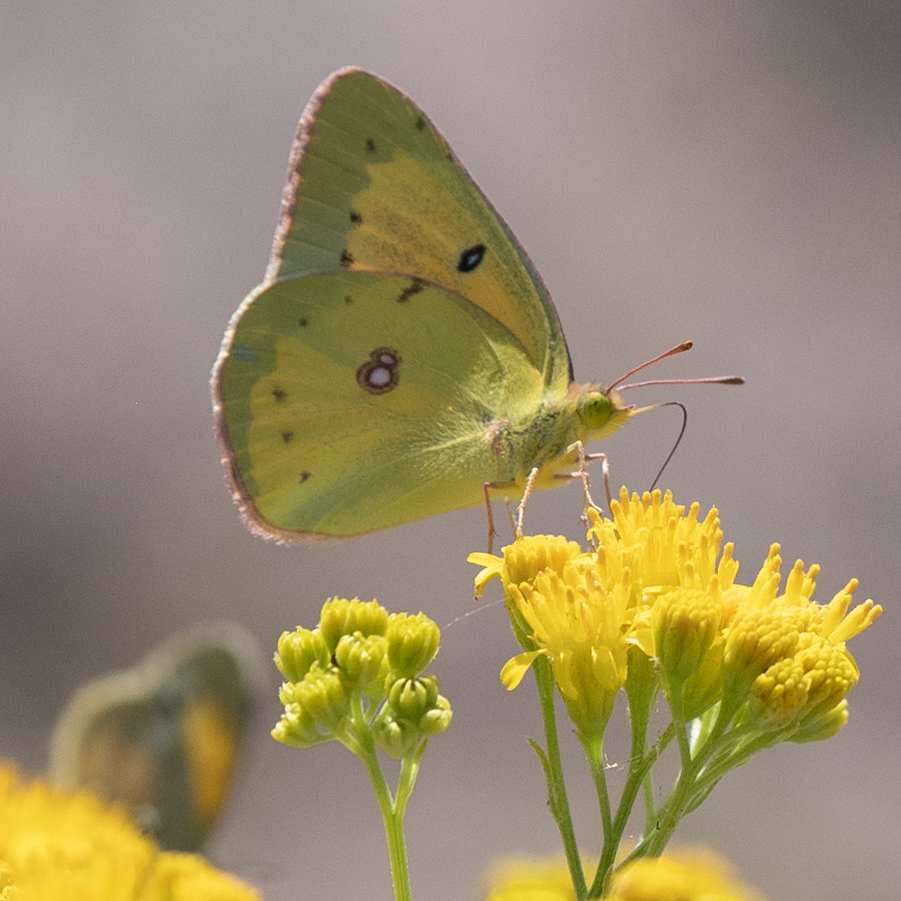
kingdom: Animalia
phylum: Arthropoda
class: Insecta
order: Lepidoptera
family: Pieridae
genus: Colias
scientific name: Colias eurytheme
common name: Alfalfa butterfly
